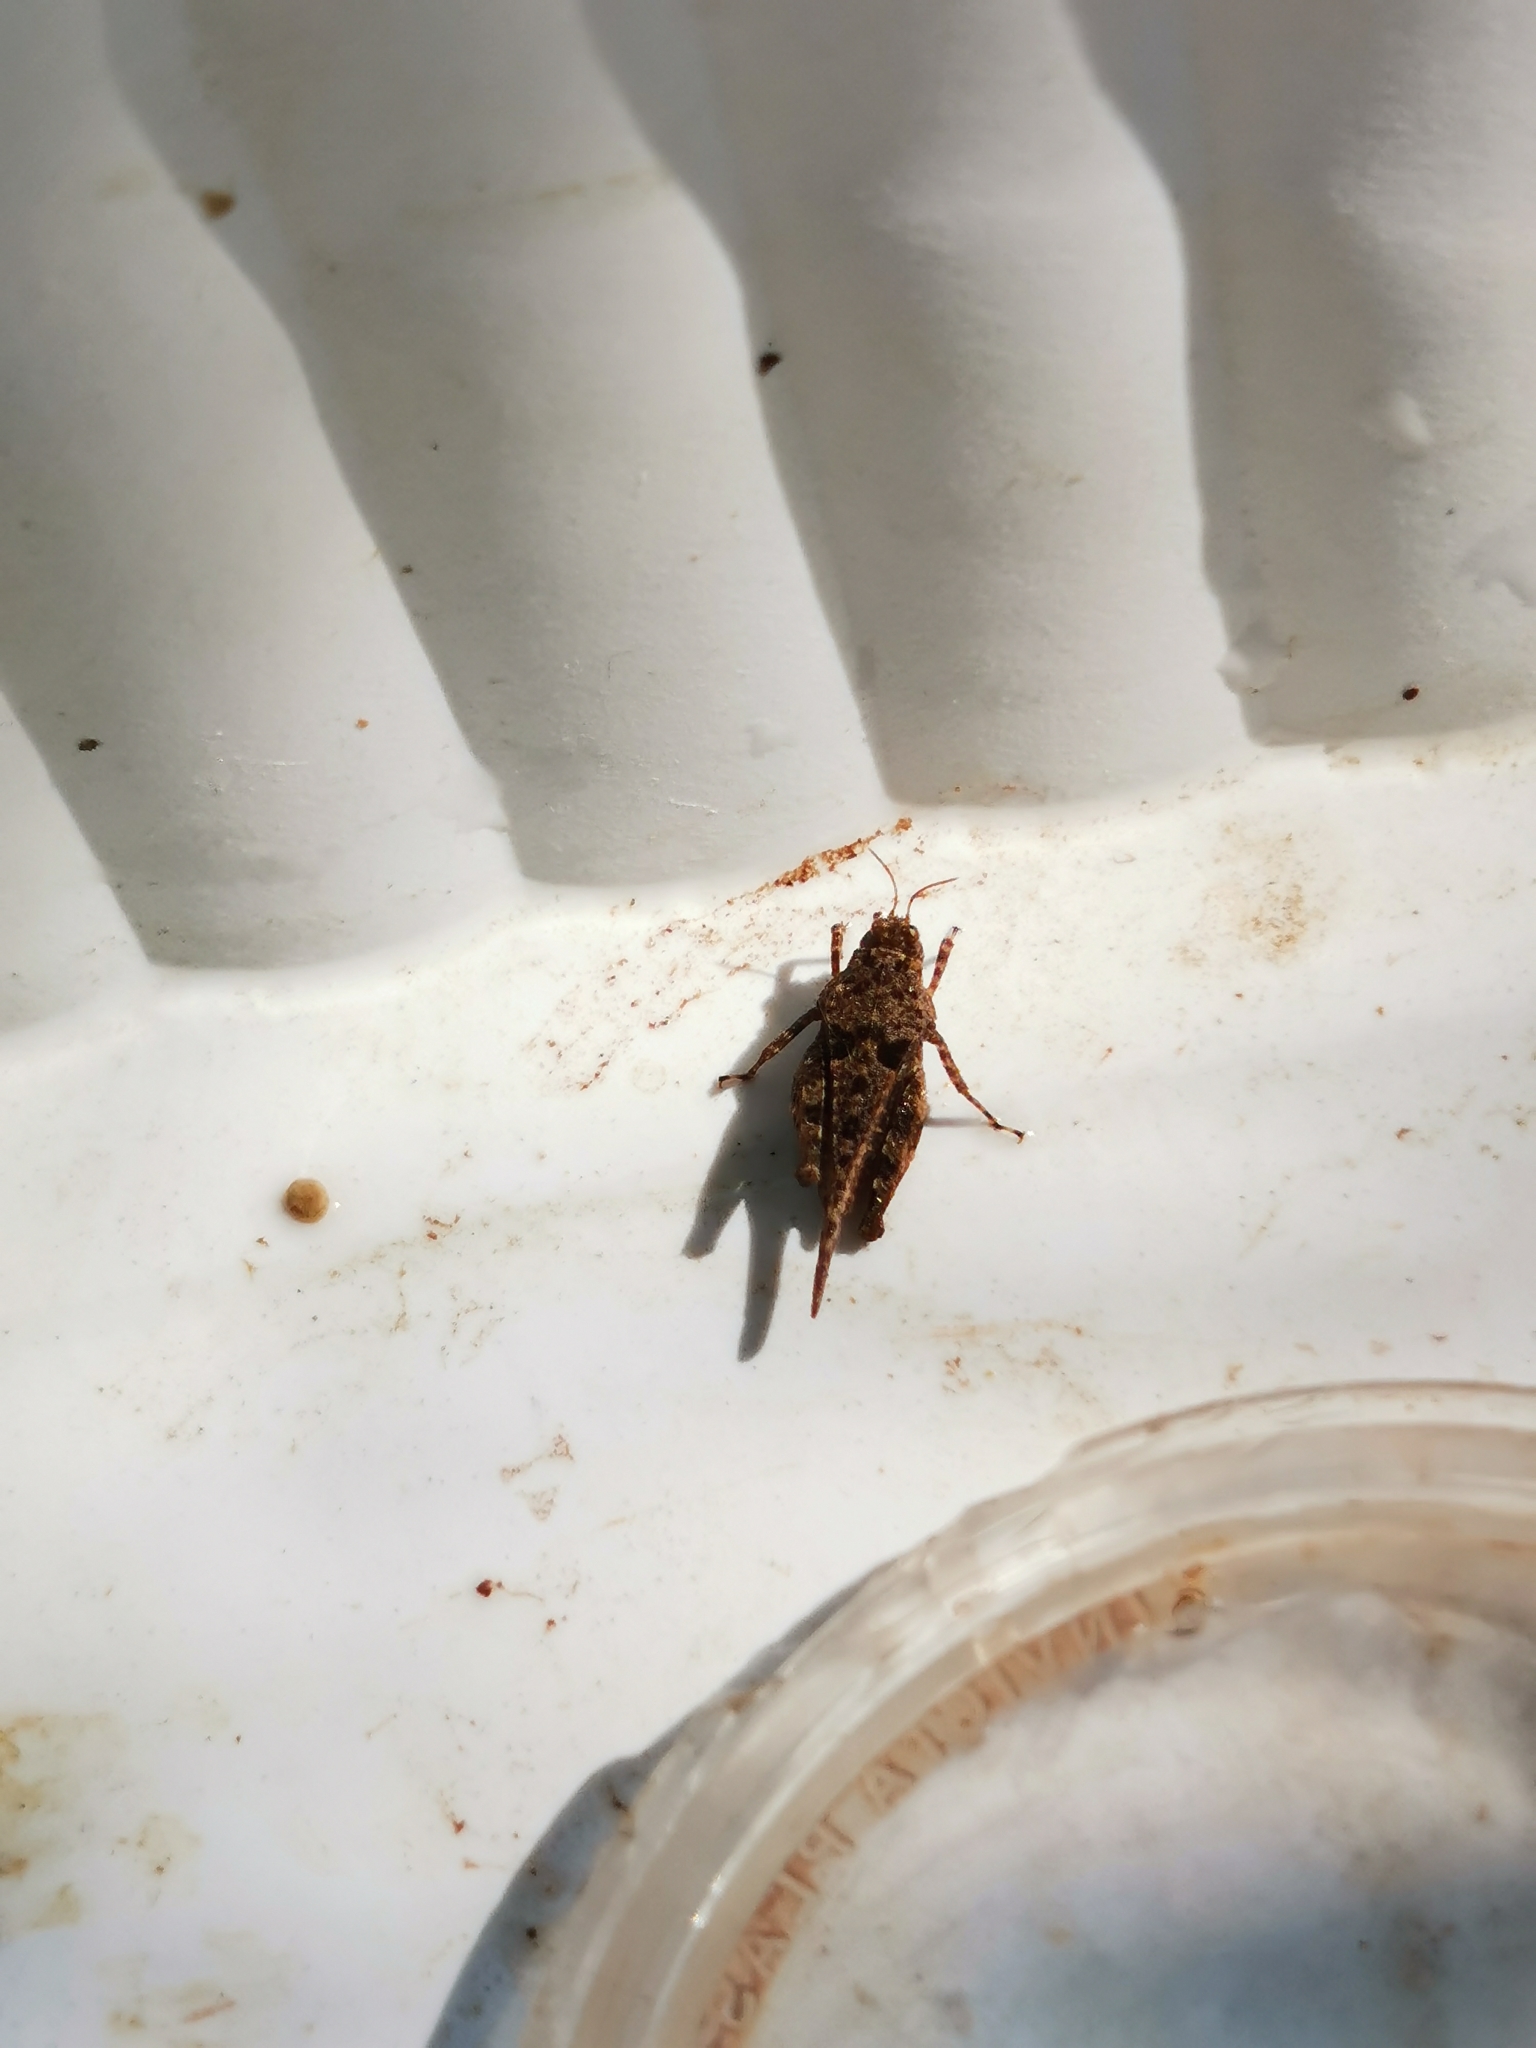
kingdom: Animalia
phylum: Arthropoda
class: Insecta
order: Orthoptera
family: Tetrigidae
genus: Paratettix
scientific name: Paratettix meridionalis
